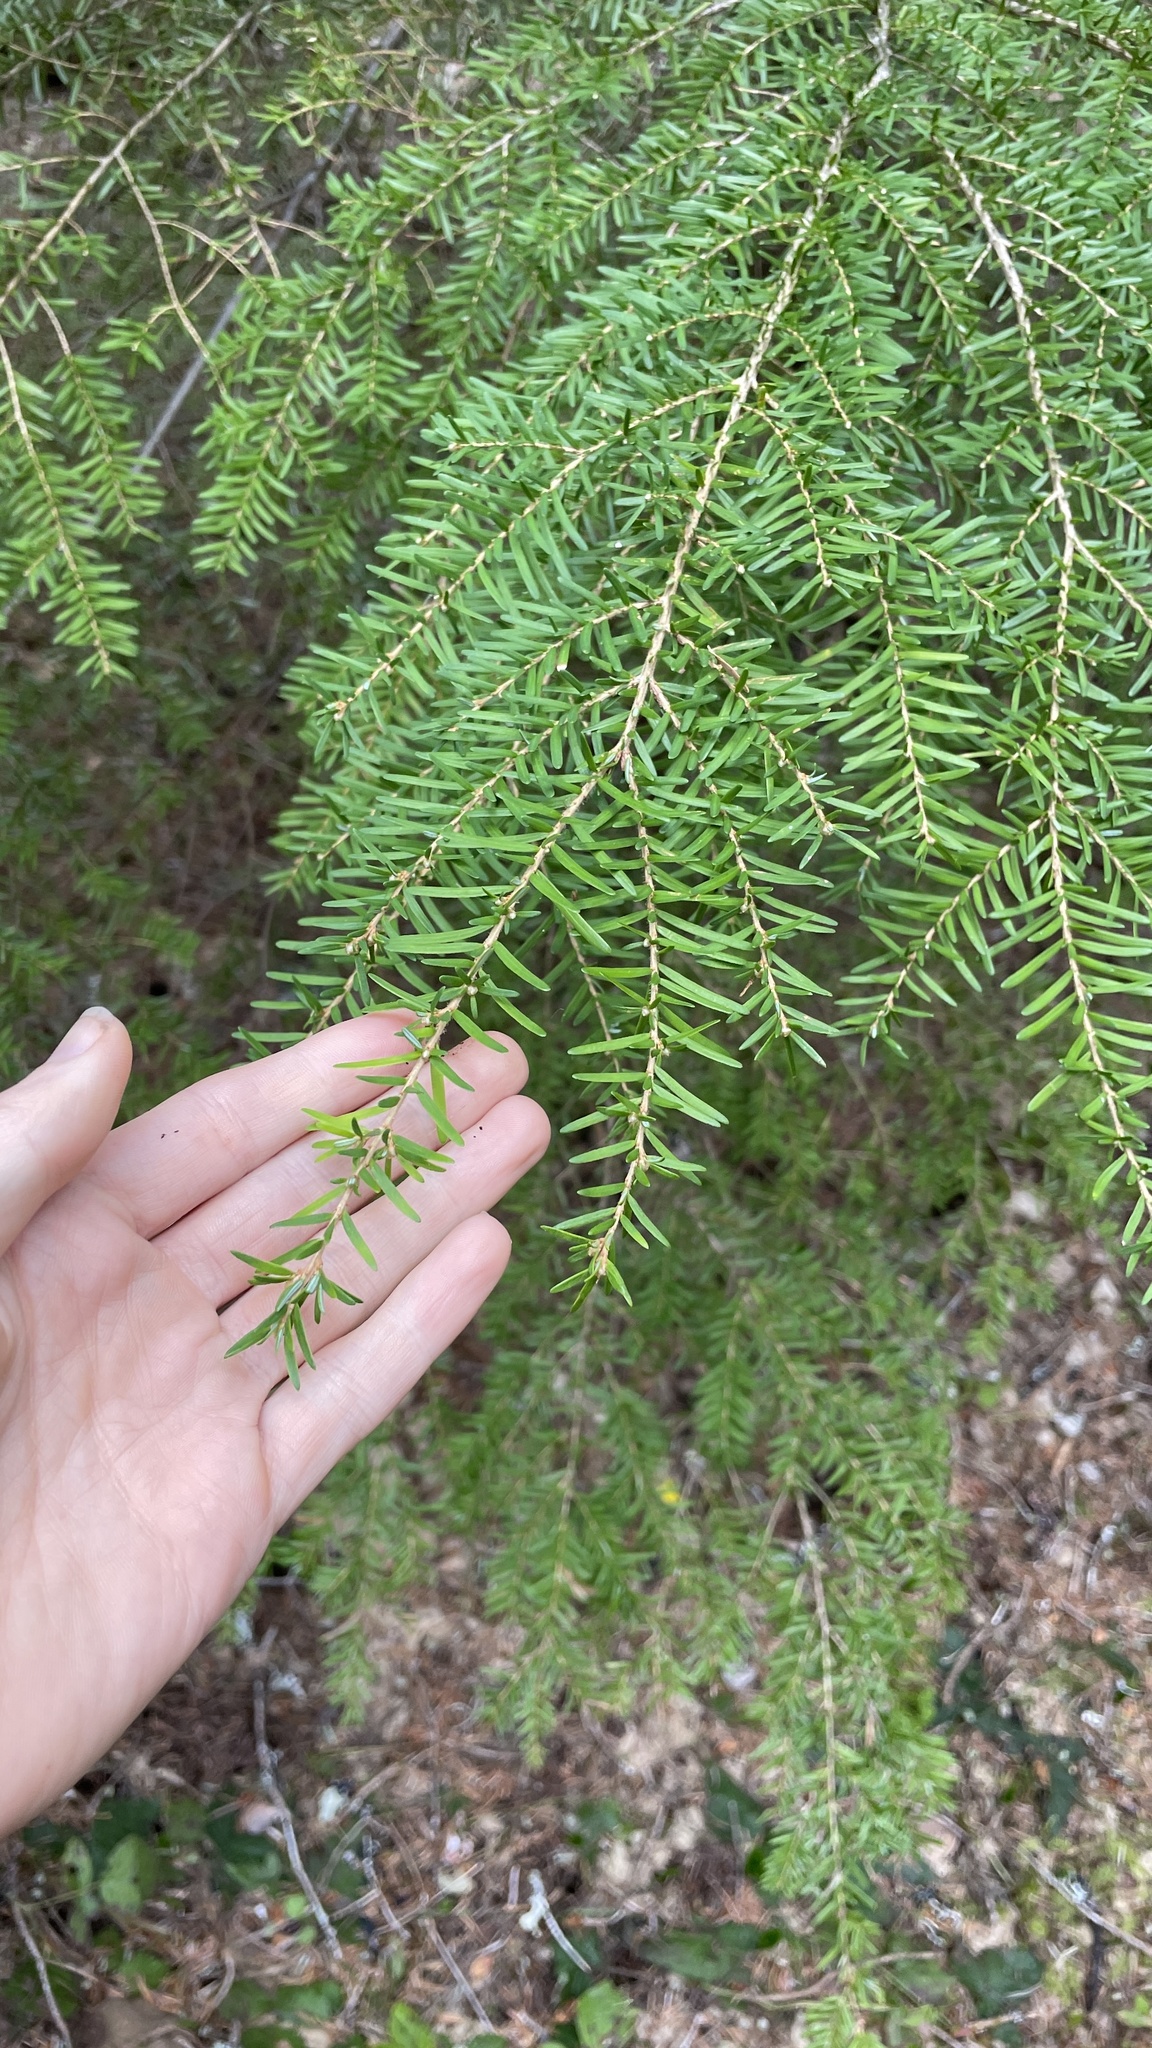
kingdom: Plantae
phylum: Tracheophyta
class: Pinopsida
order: Pinales
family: Pinaceae
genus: Tsuga
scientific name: Tsuga heterophylla
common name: Western hemlock
